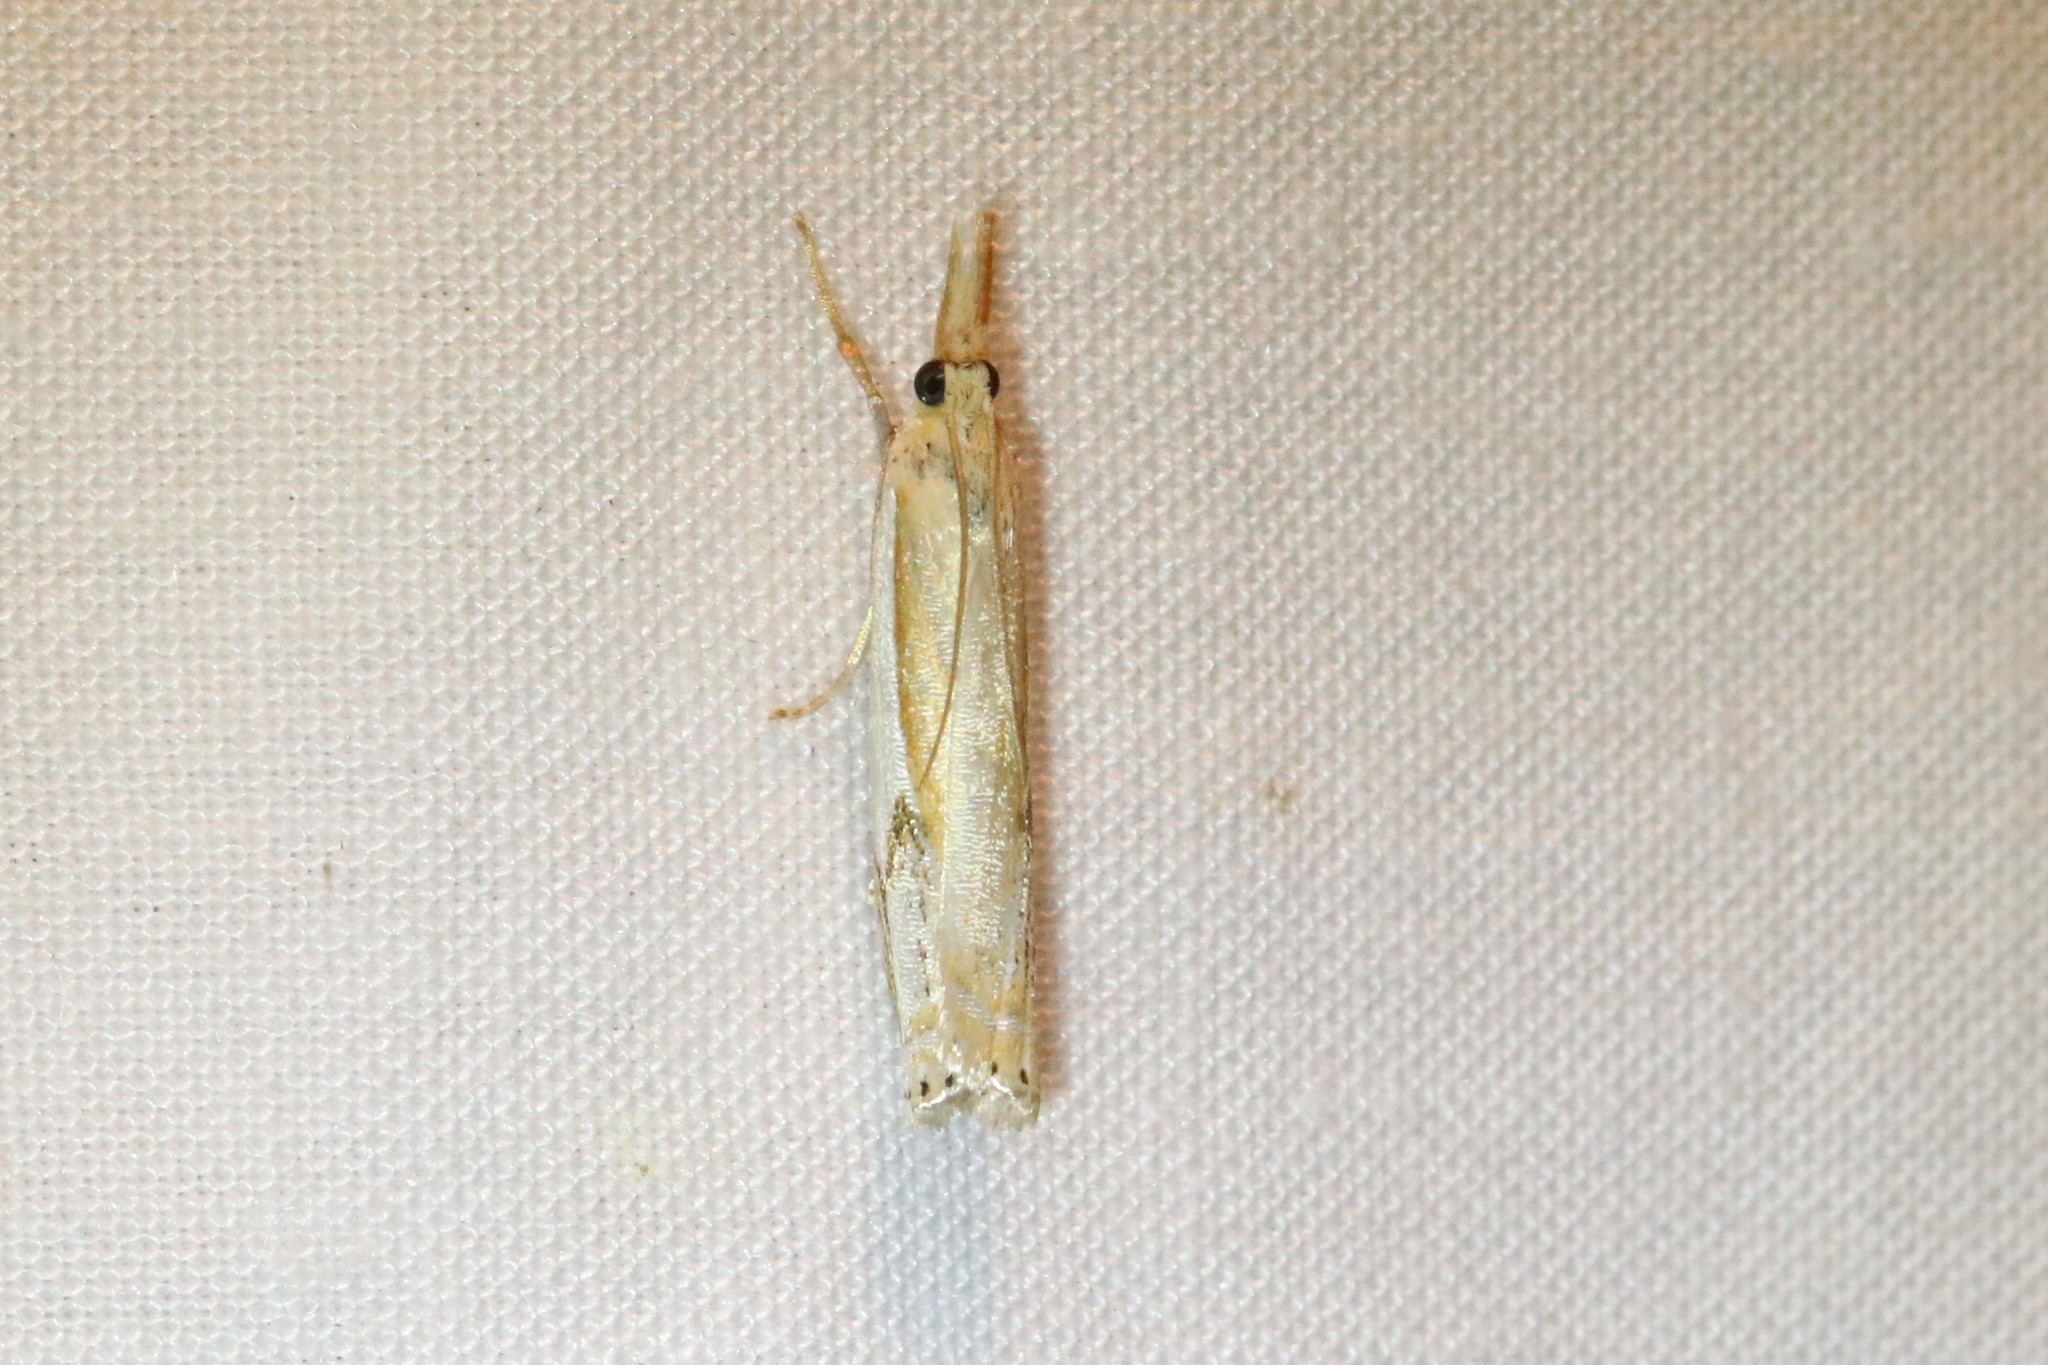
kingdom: Animalia
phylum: Arthropoda
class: Insecta
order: Lepidoptera
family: Crambidae
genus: Crambus
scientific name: Crambus agitatellus
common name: Double-banded grass-veneer
